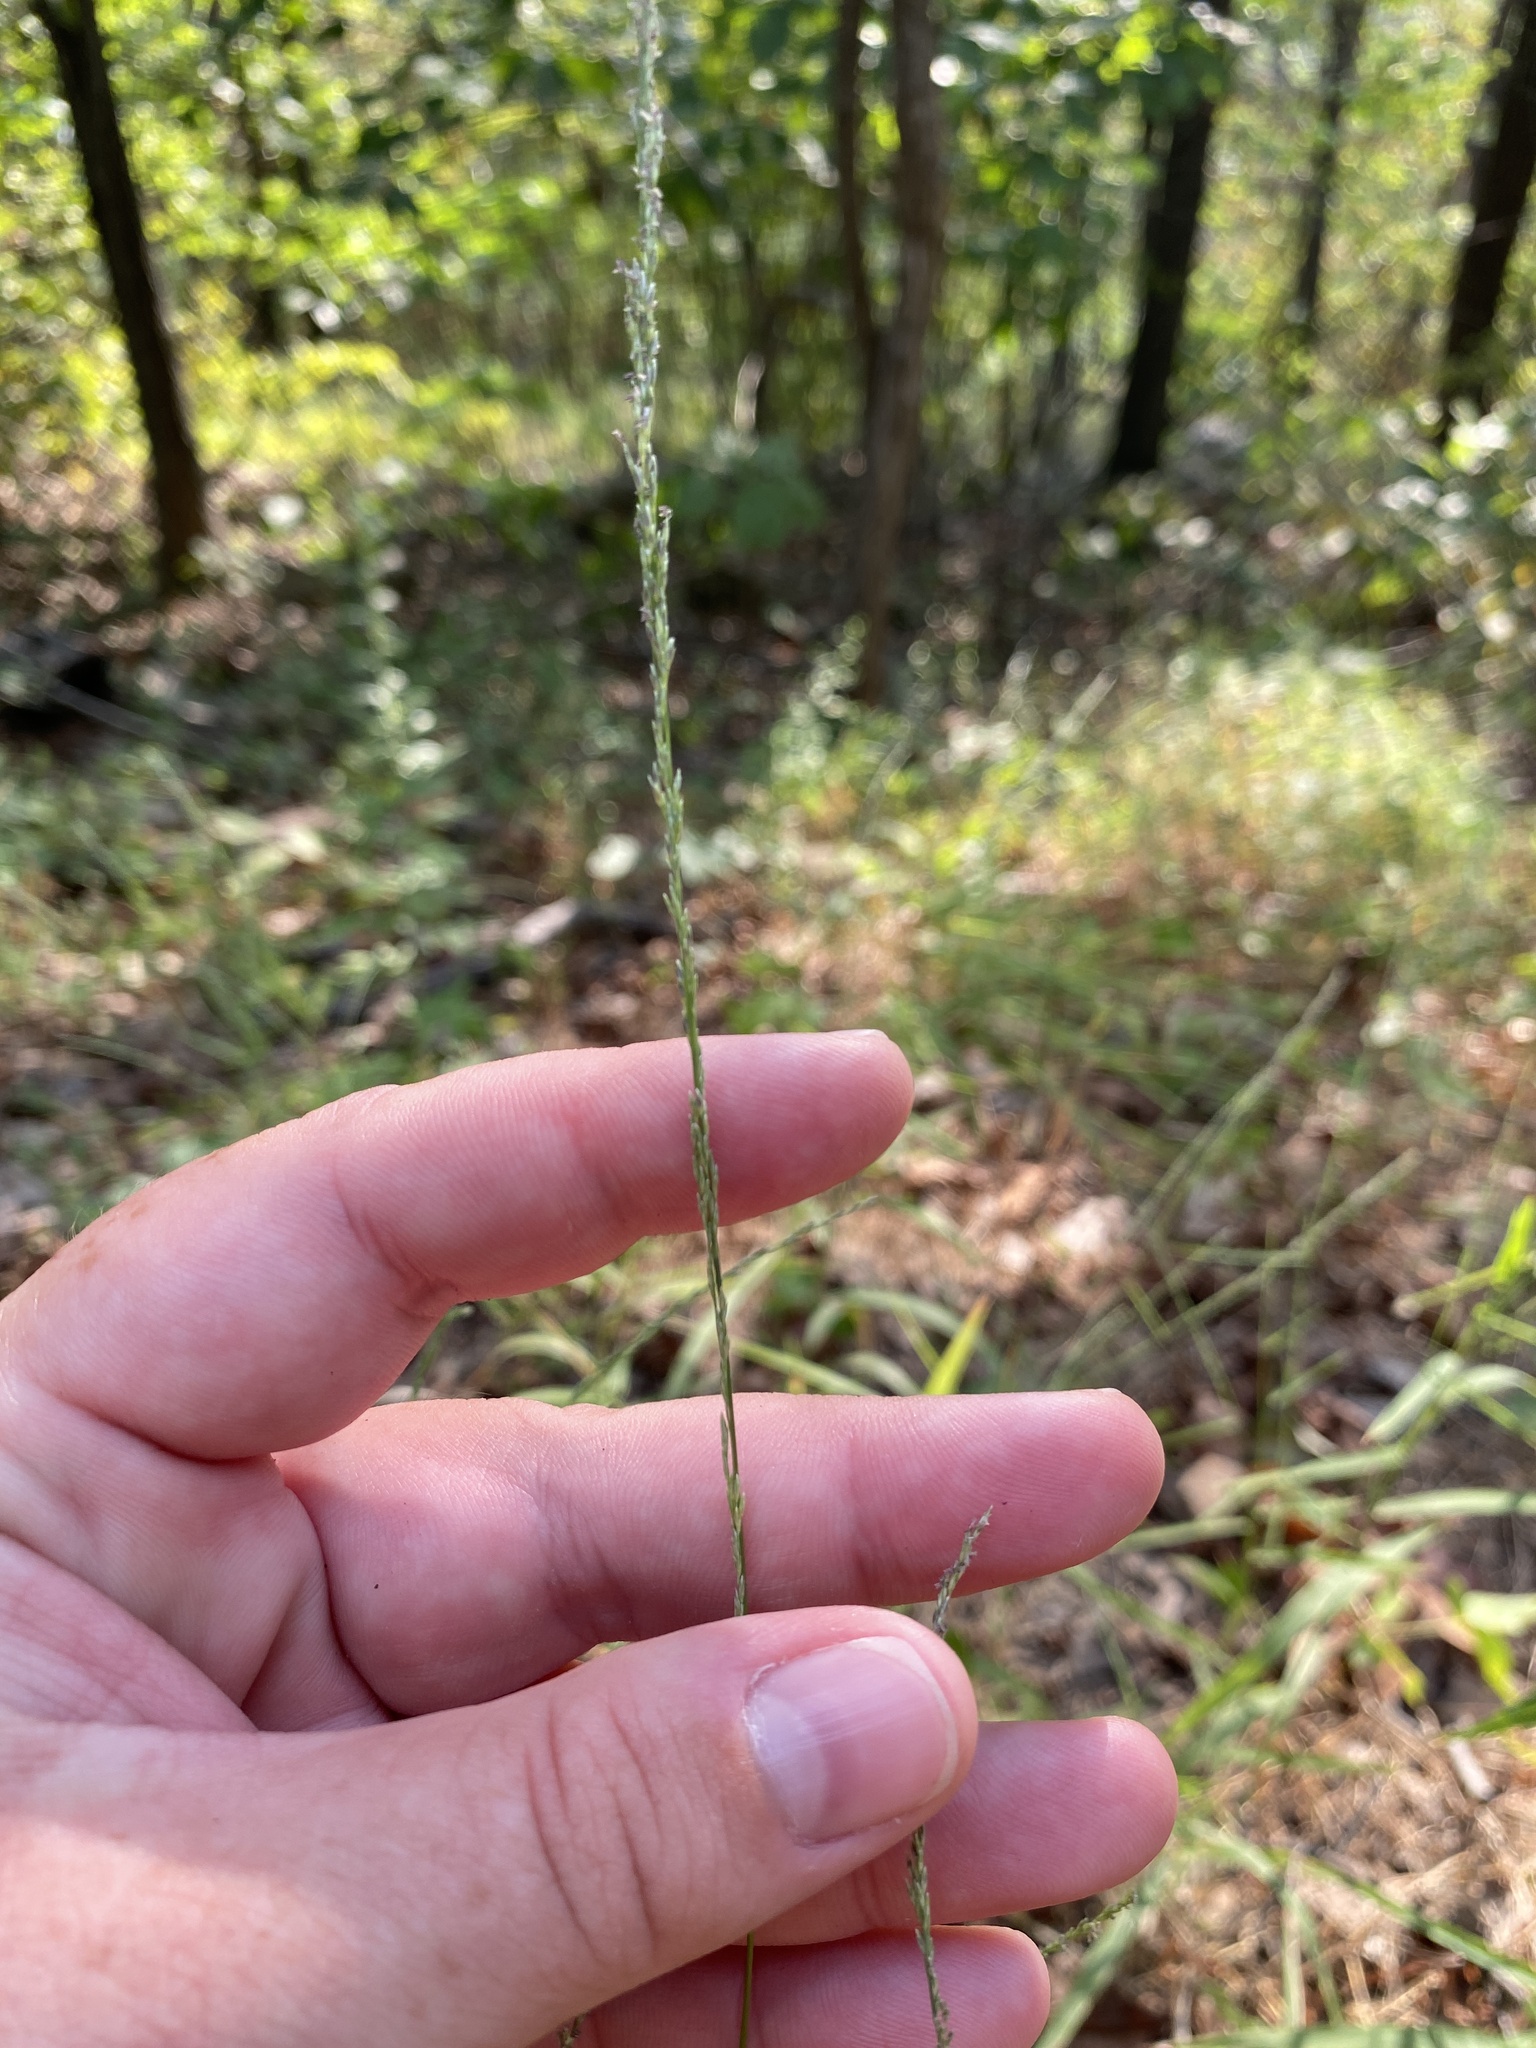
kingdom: Plantae
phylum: Tracheophyta
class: Liliopsida
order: Poales
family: Poaceae
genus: Muhlenbergia
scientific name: Muhlenbergia sobolifera
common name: Creeping muhly
